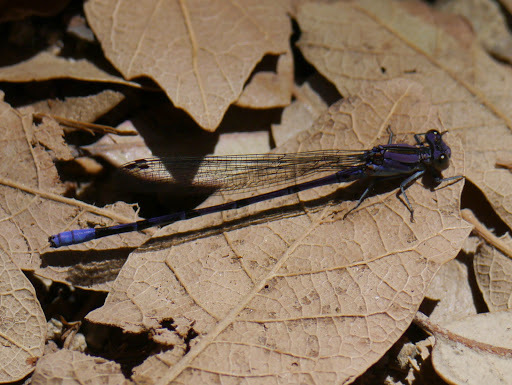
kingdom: Animalia
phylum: Arthropoda
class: Insecta
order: Odonata
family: Coenagrionidae
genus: Argia
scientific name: Argia funebris
